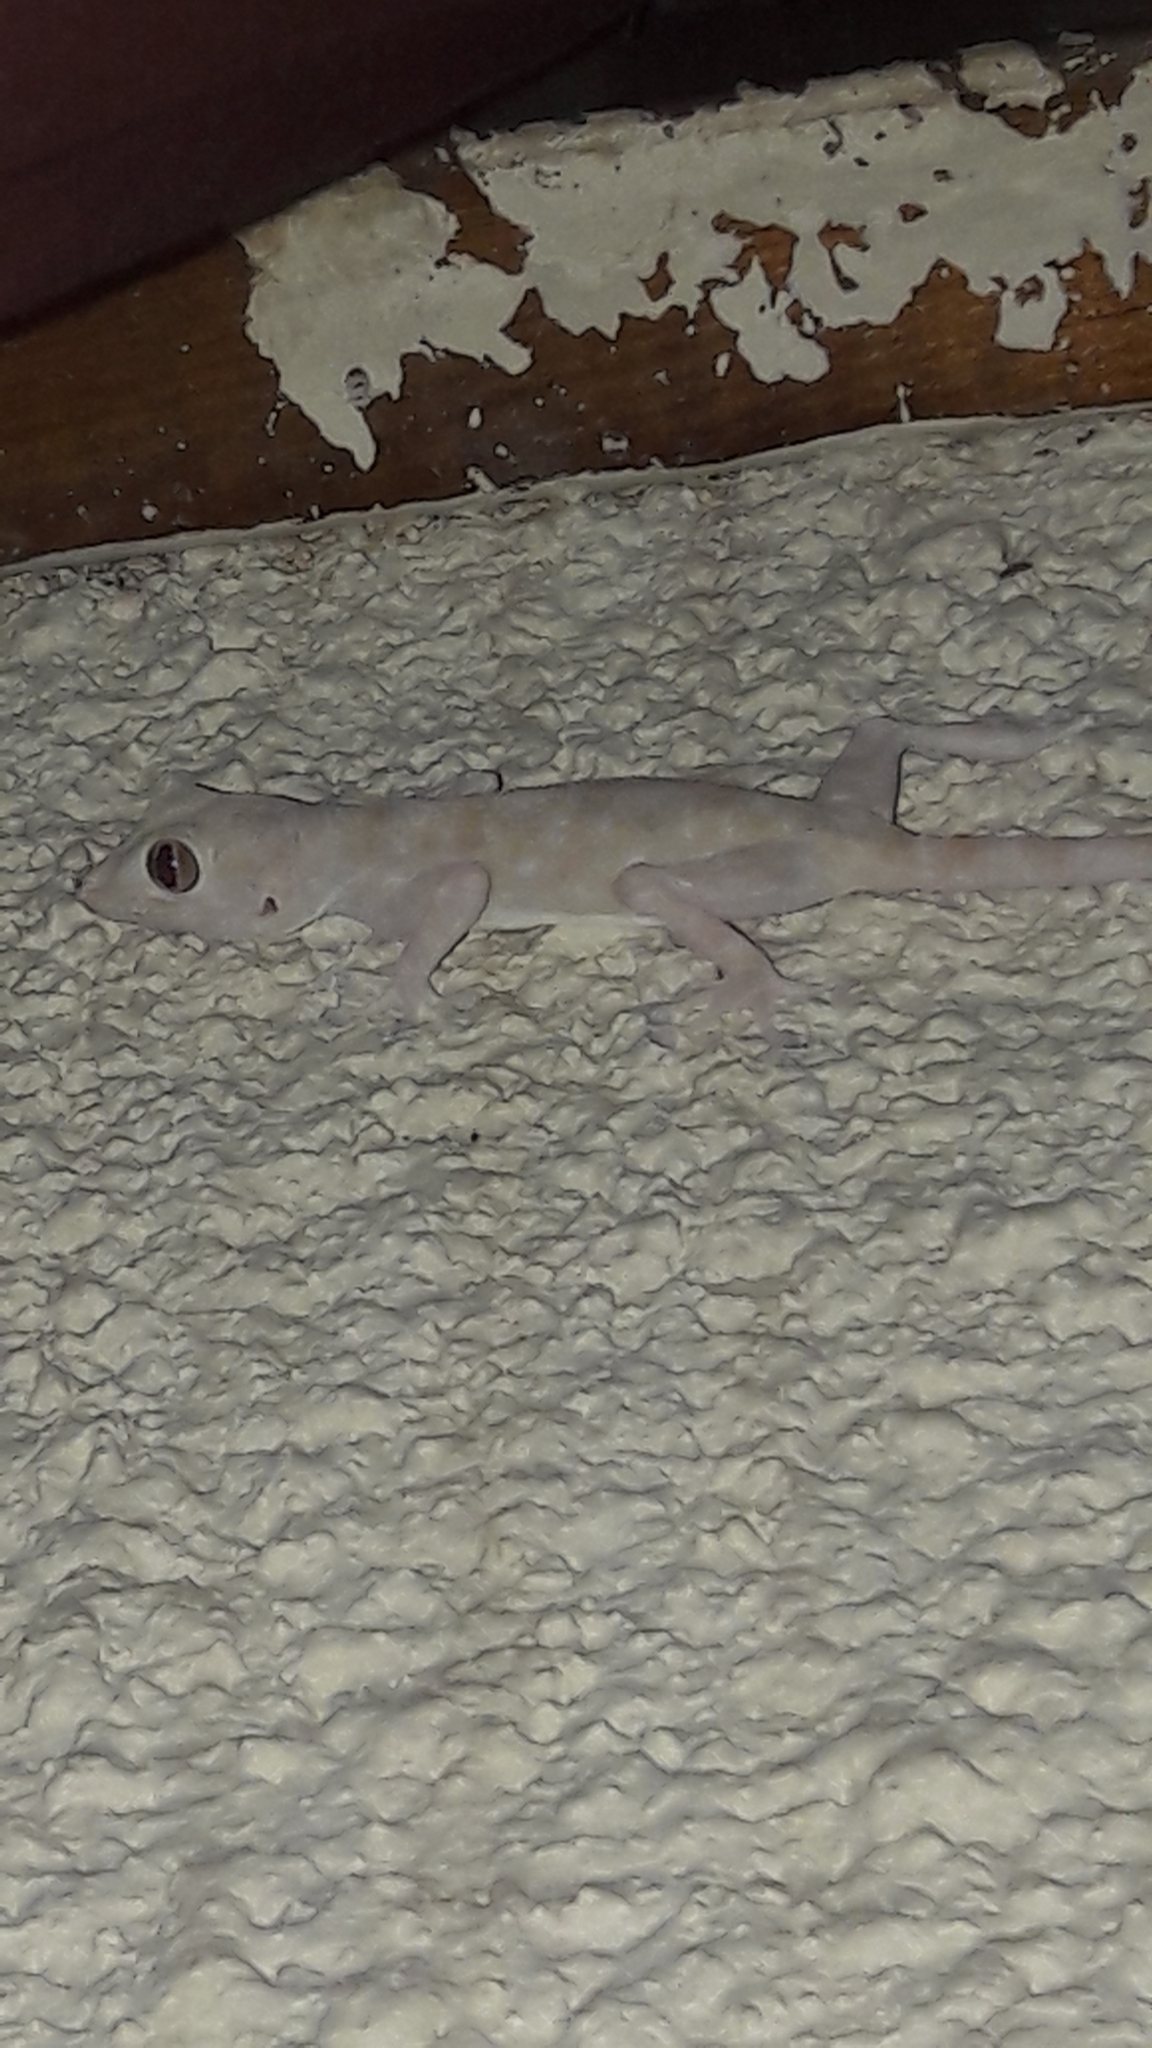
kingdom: Animalia
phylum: Chordata
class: Squamata
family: Phyllodactylidae
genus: Ptyodactylus
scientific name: Ptyodactylus guttatus
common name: Sinai fan-fingered gecko
